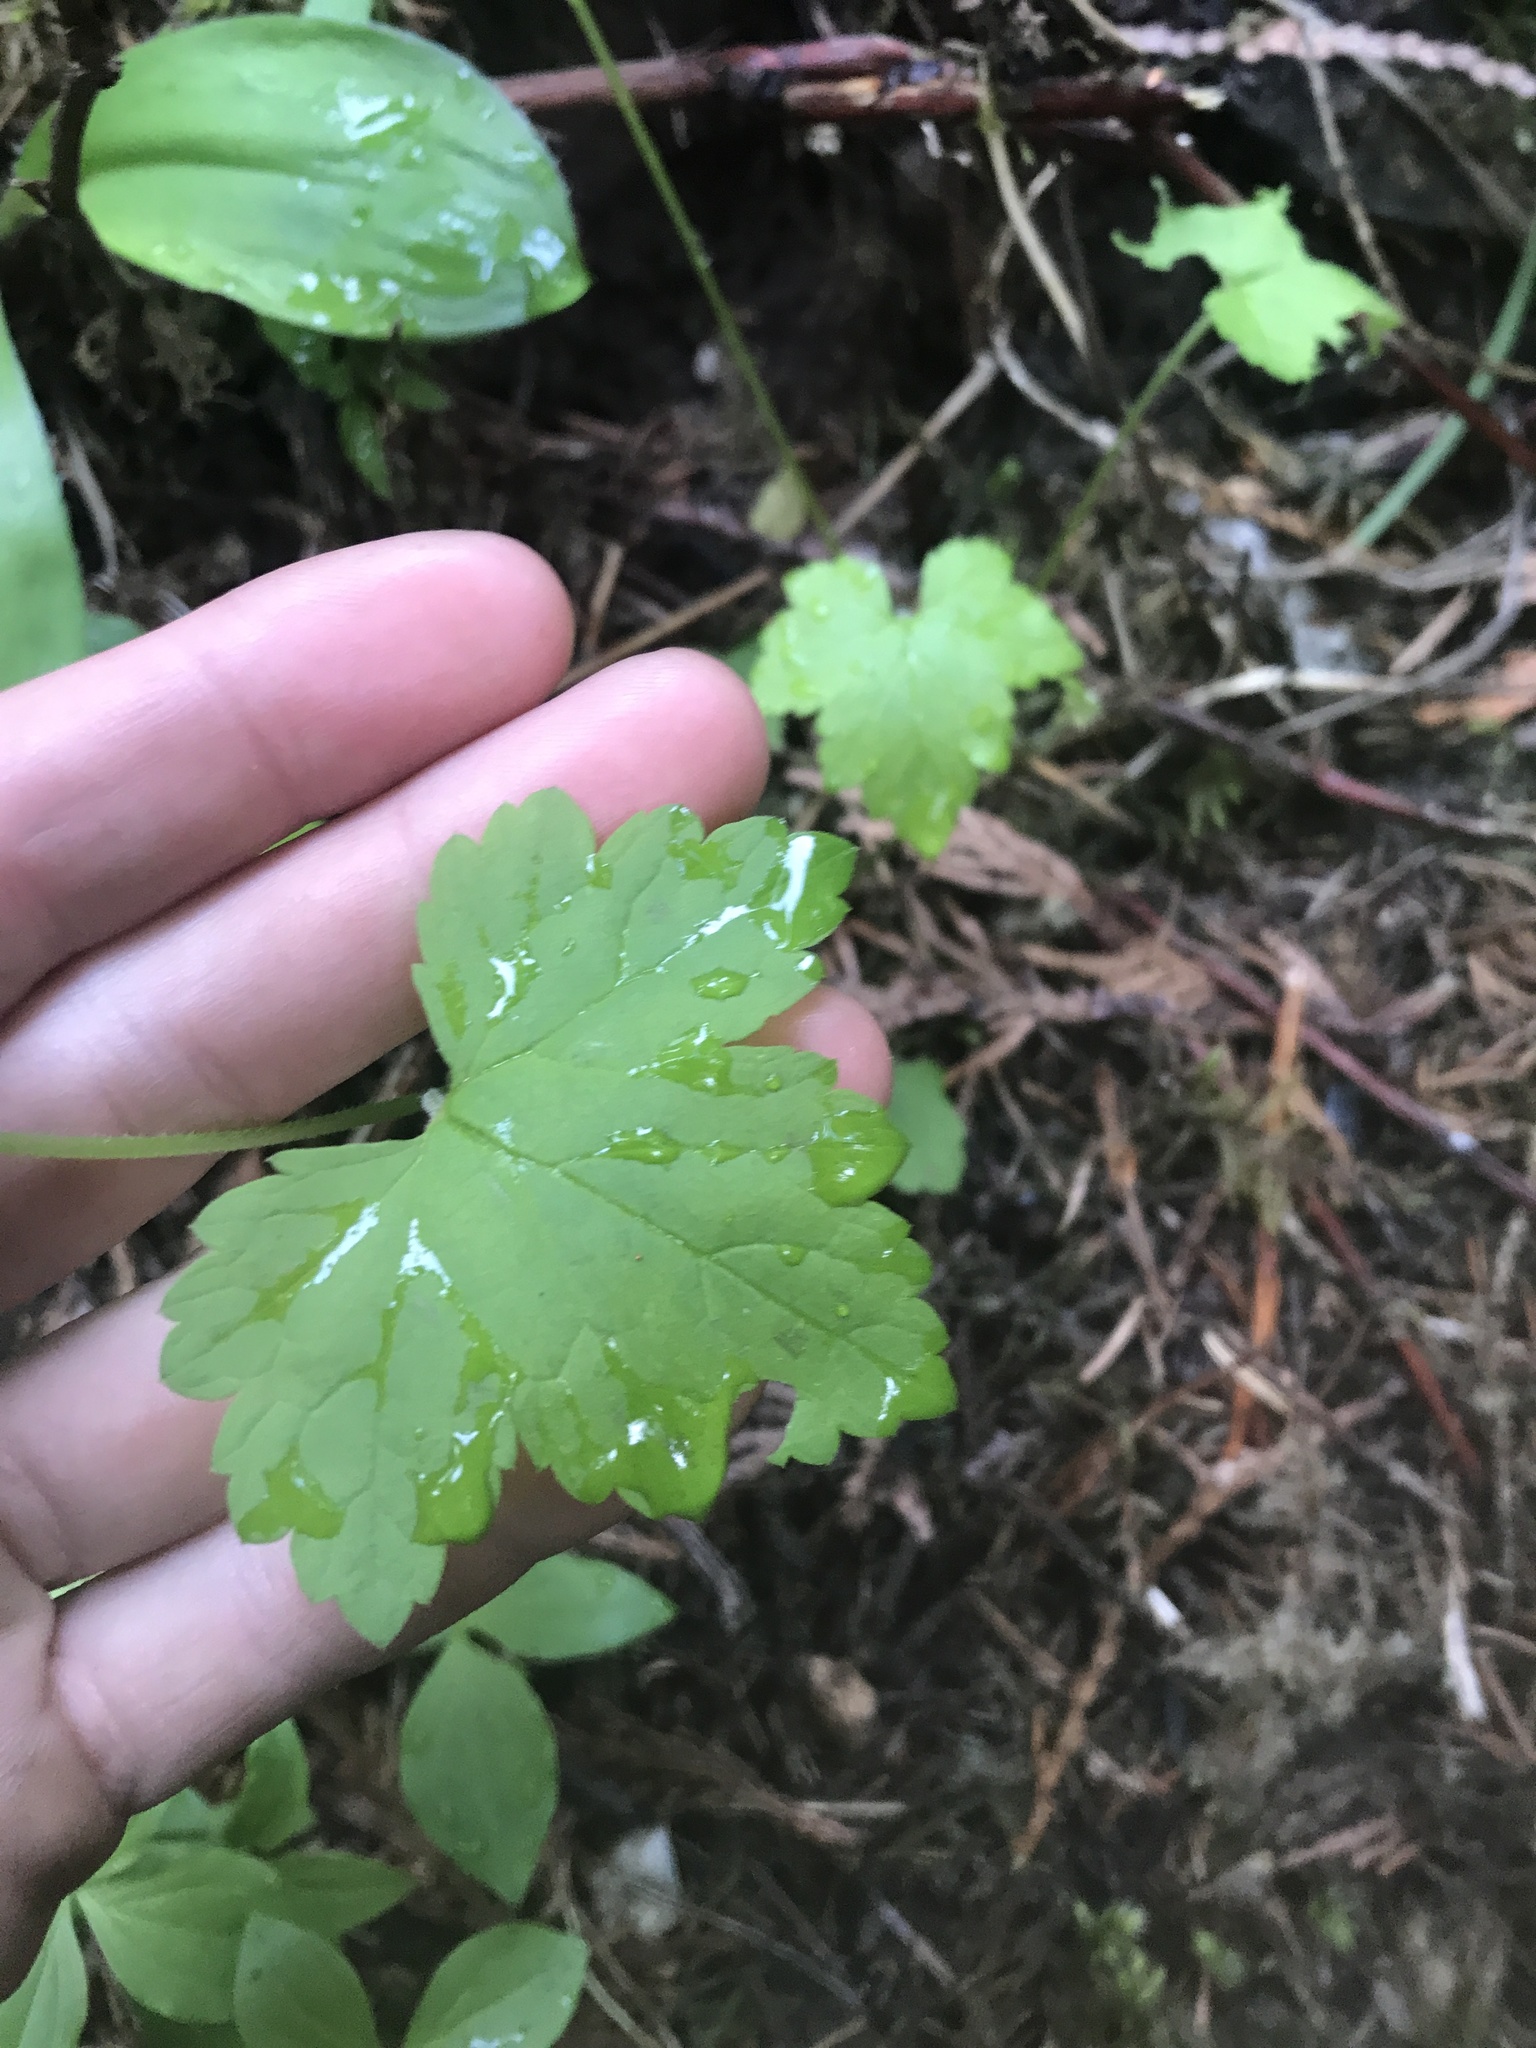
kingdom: Plantae
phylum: Tracheophyta
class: Magnoliopsida
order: Saxifragales
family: Saxifragaceae
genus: Tiarella
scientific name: Tiarella trifoliata
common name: Sugar-scoop
